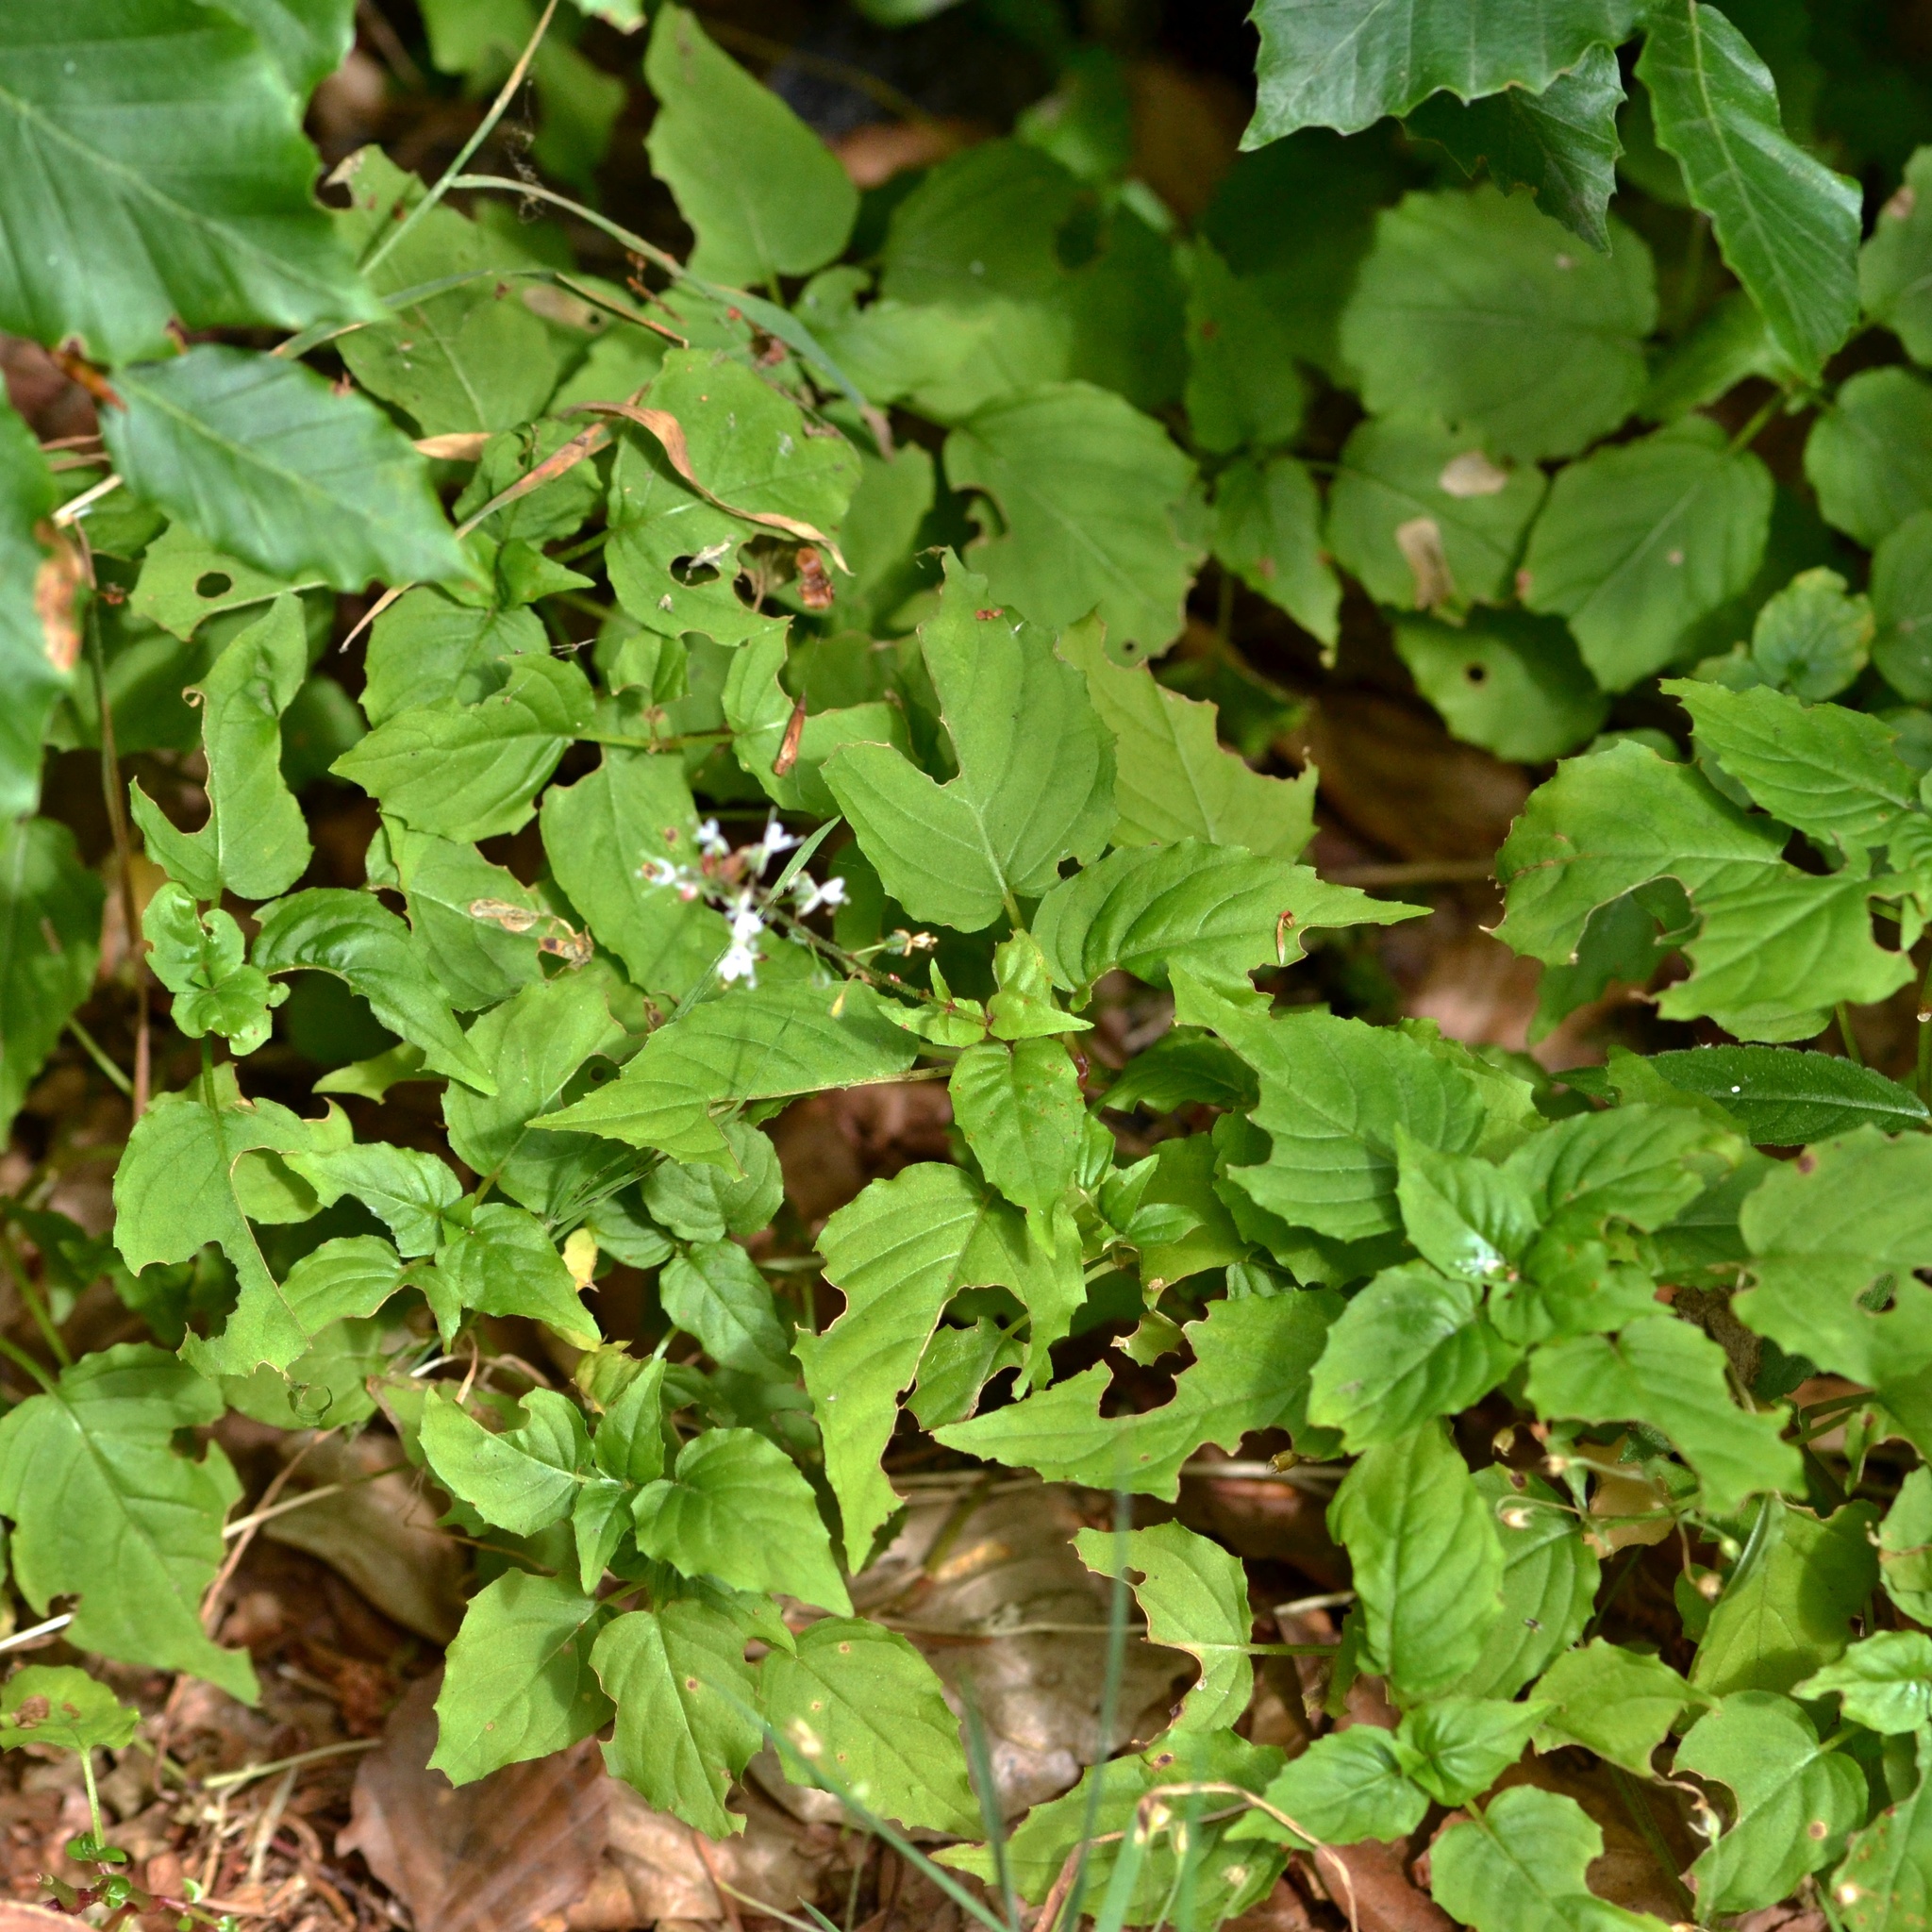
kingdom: Plantae
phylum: Tracheophyta
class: Magnoliopsida
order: Myrtales
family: Onagraceae
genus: Circaea
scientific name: Circaea lutetiana
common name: Enchanter's-nightshade
